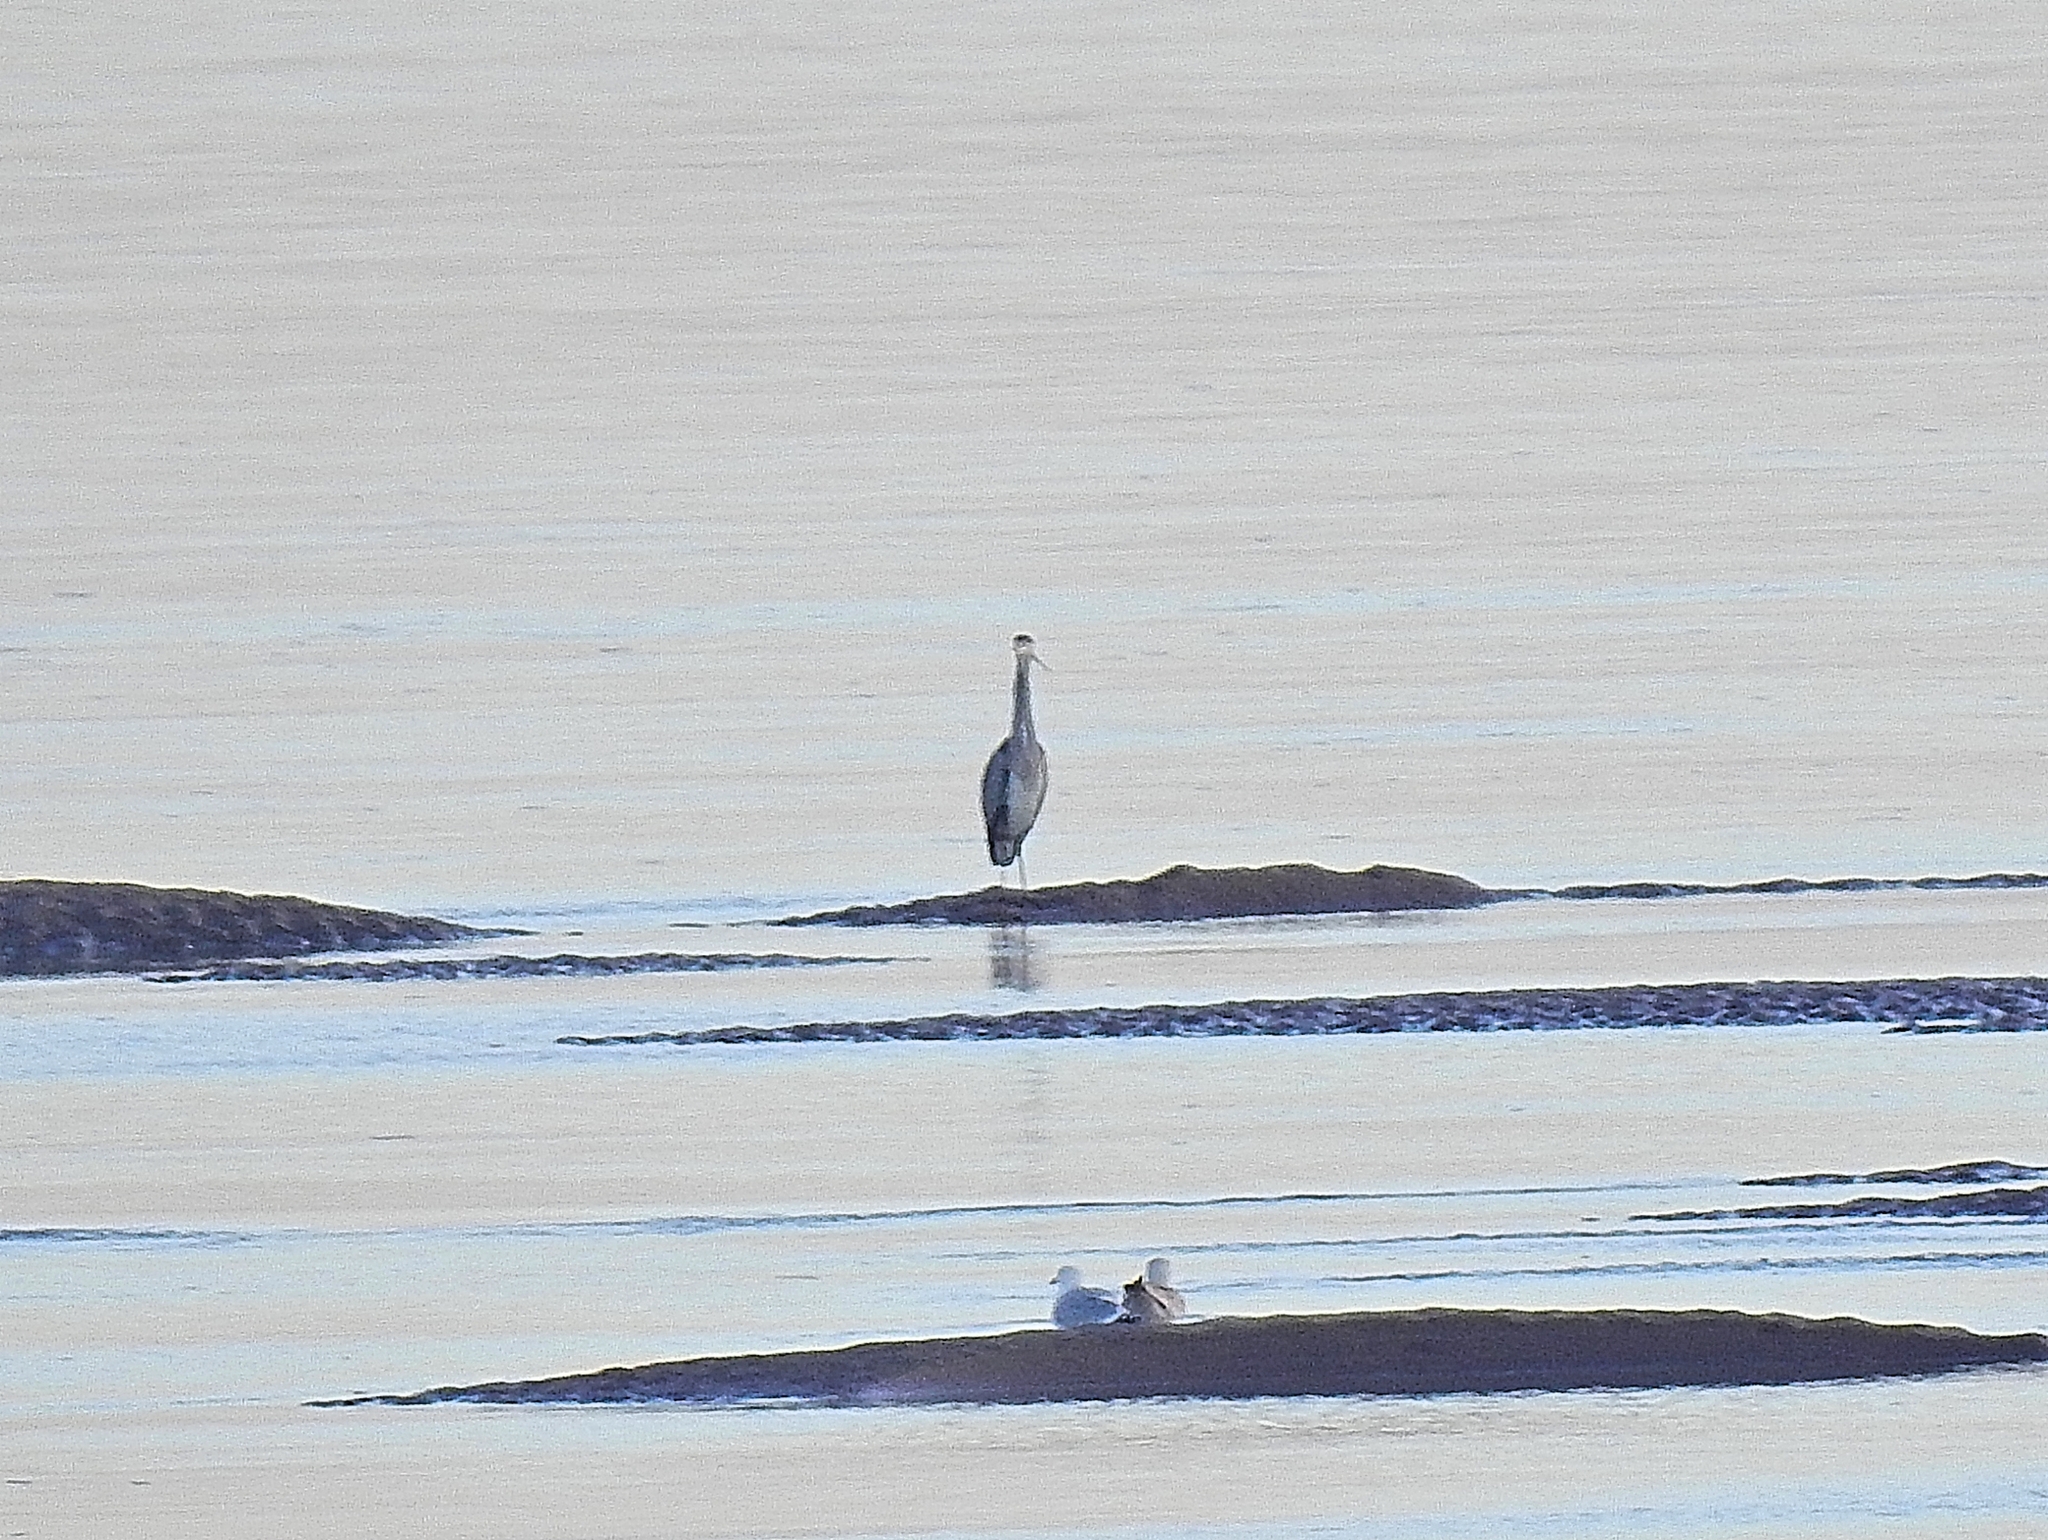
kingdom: Animalia
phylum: Chordata
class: Aves
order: Pelecaniformes
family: Ardeidae
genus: Ardea
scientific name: Ardea cinerea
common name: Grey heron
